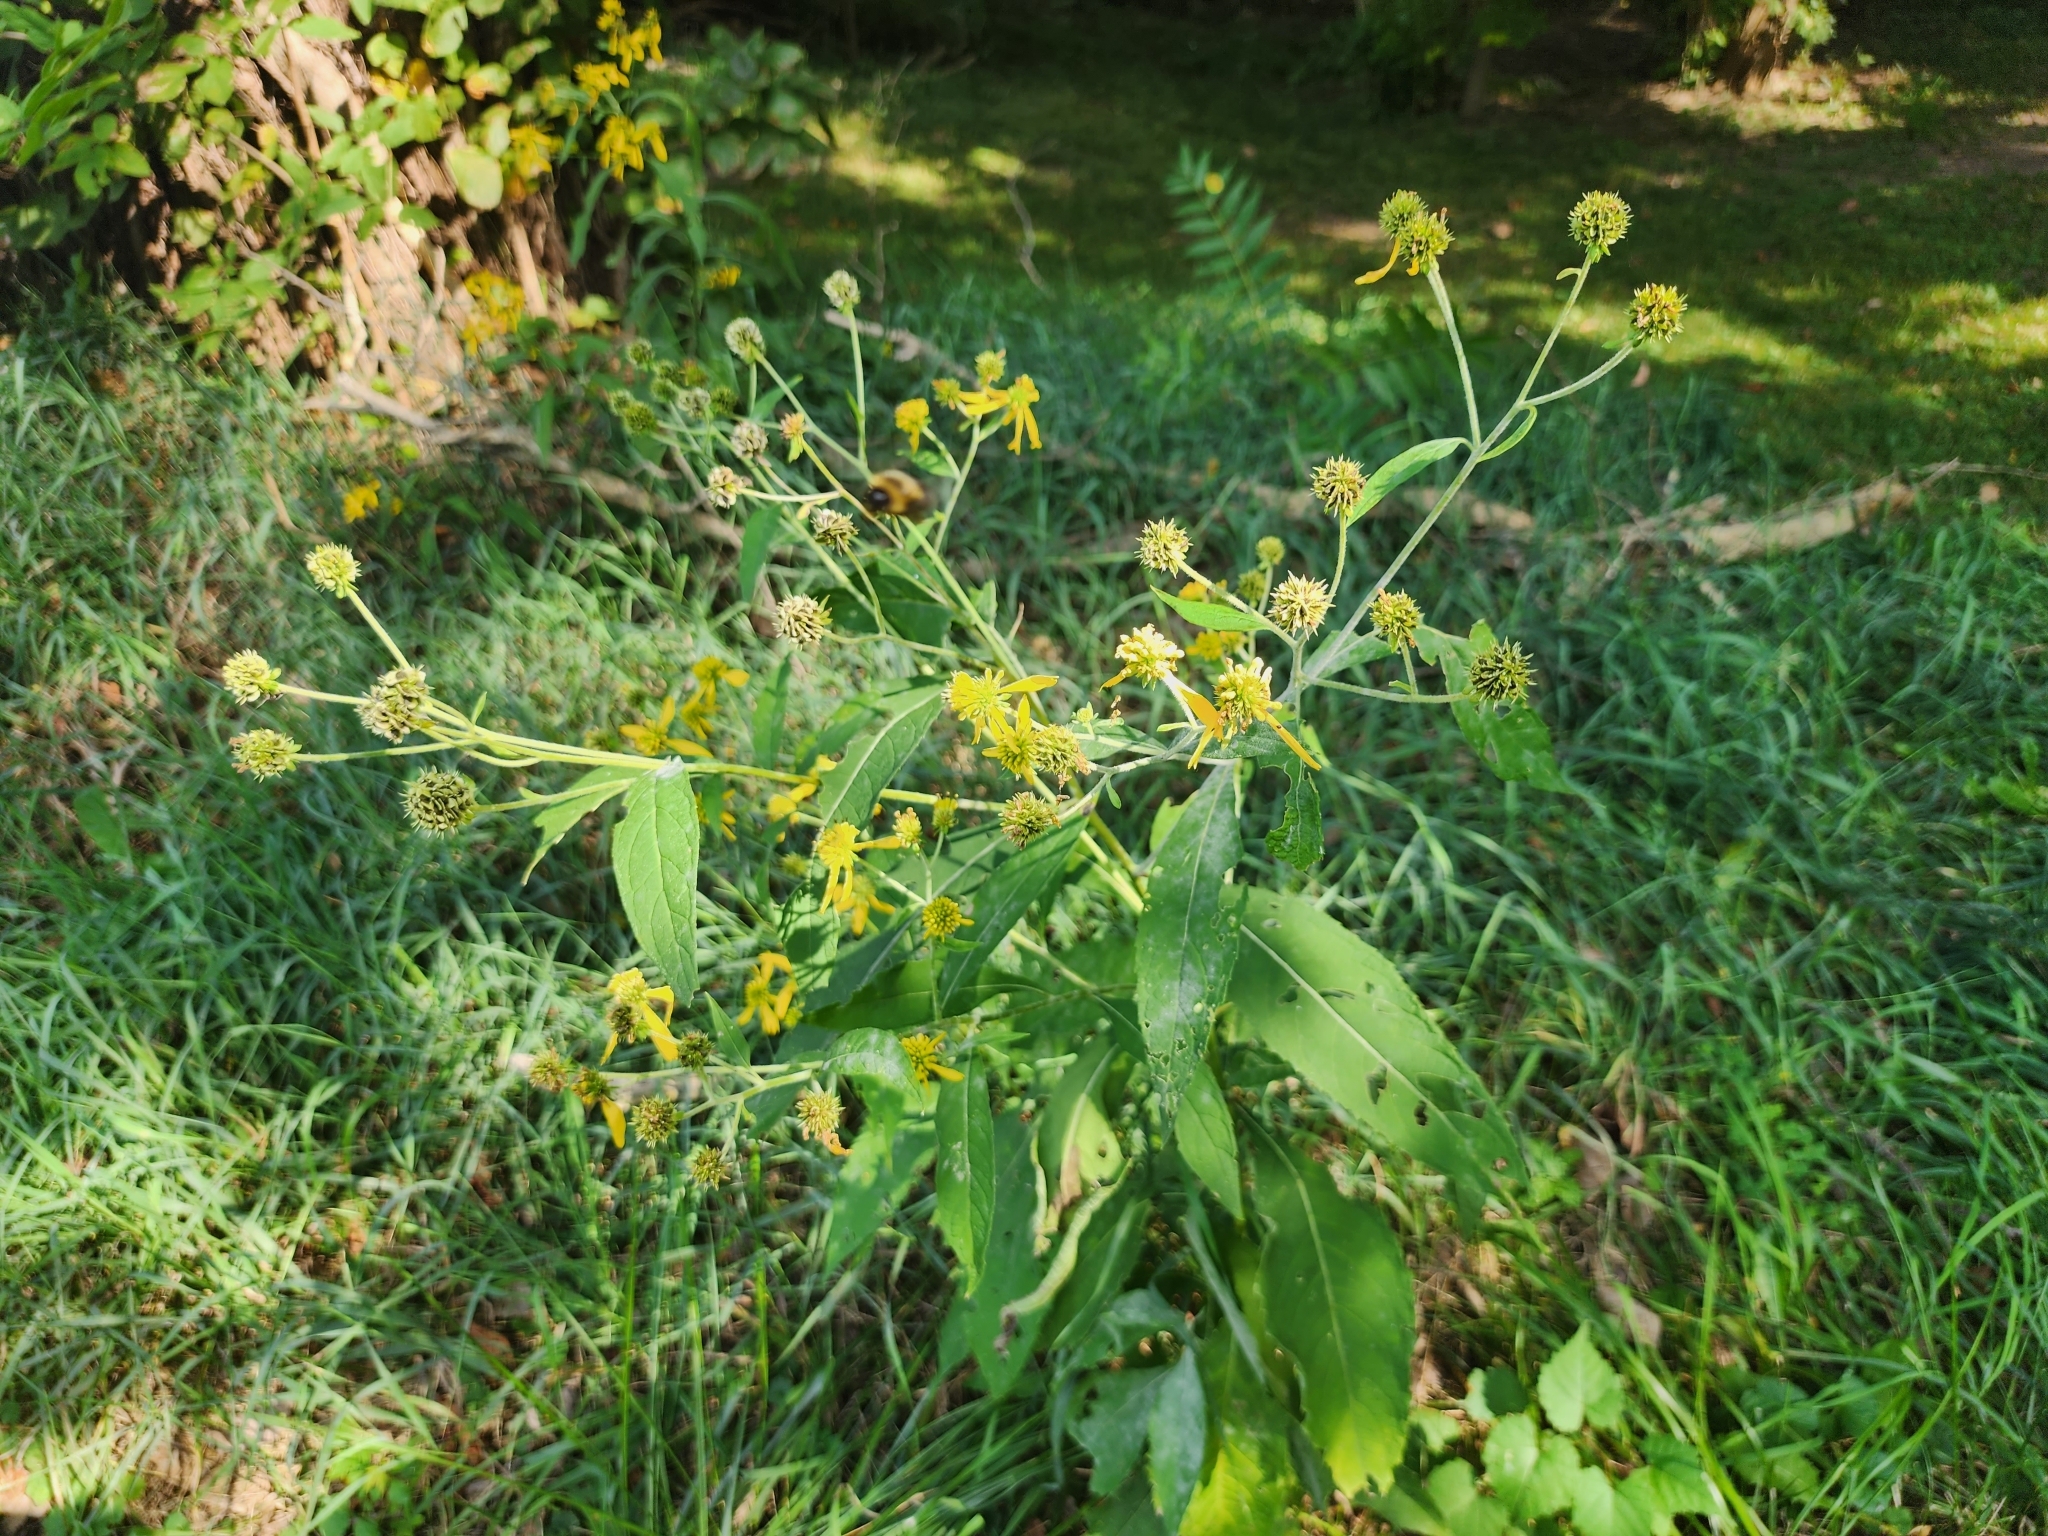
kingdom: Plantae
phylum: Tracheophyta
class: Magnoliopsida
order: Asterales
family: Asteraceae
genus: Verbesina
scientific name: Verbesina alternifolia
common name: Wingstem
